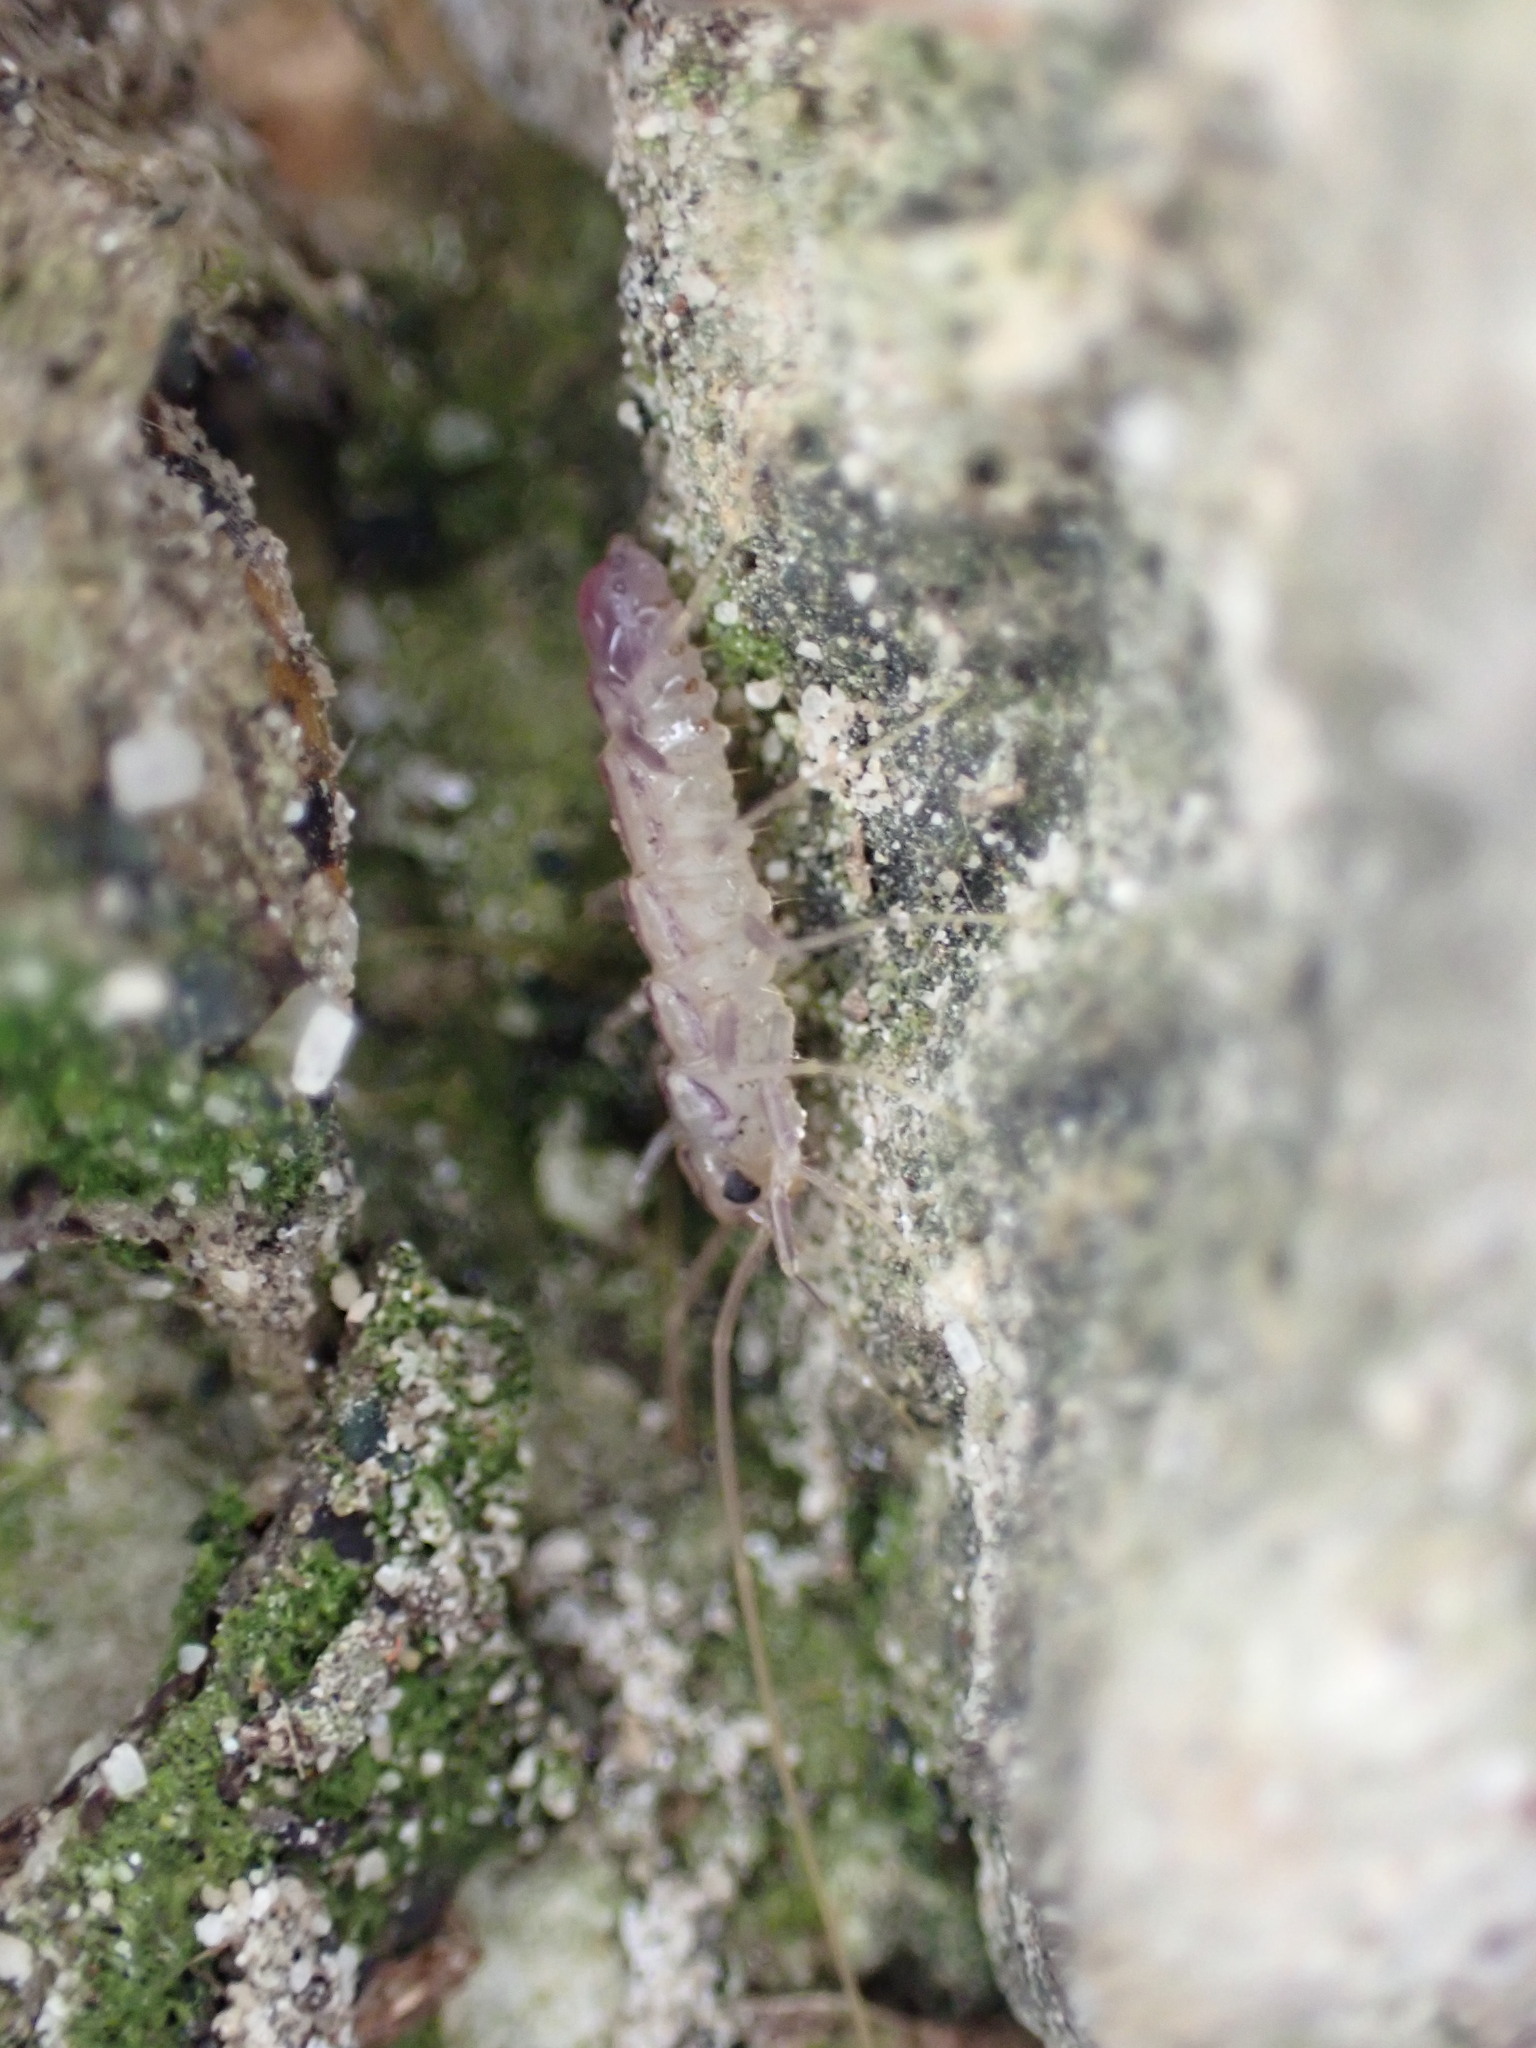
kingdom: Animalia
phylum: Arthropoda
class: Chilopoda
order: Scutigeromorpha
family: Scutigeridae
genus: Scutigera
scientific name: Scutigera coleoptrata
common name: House centipede
